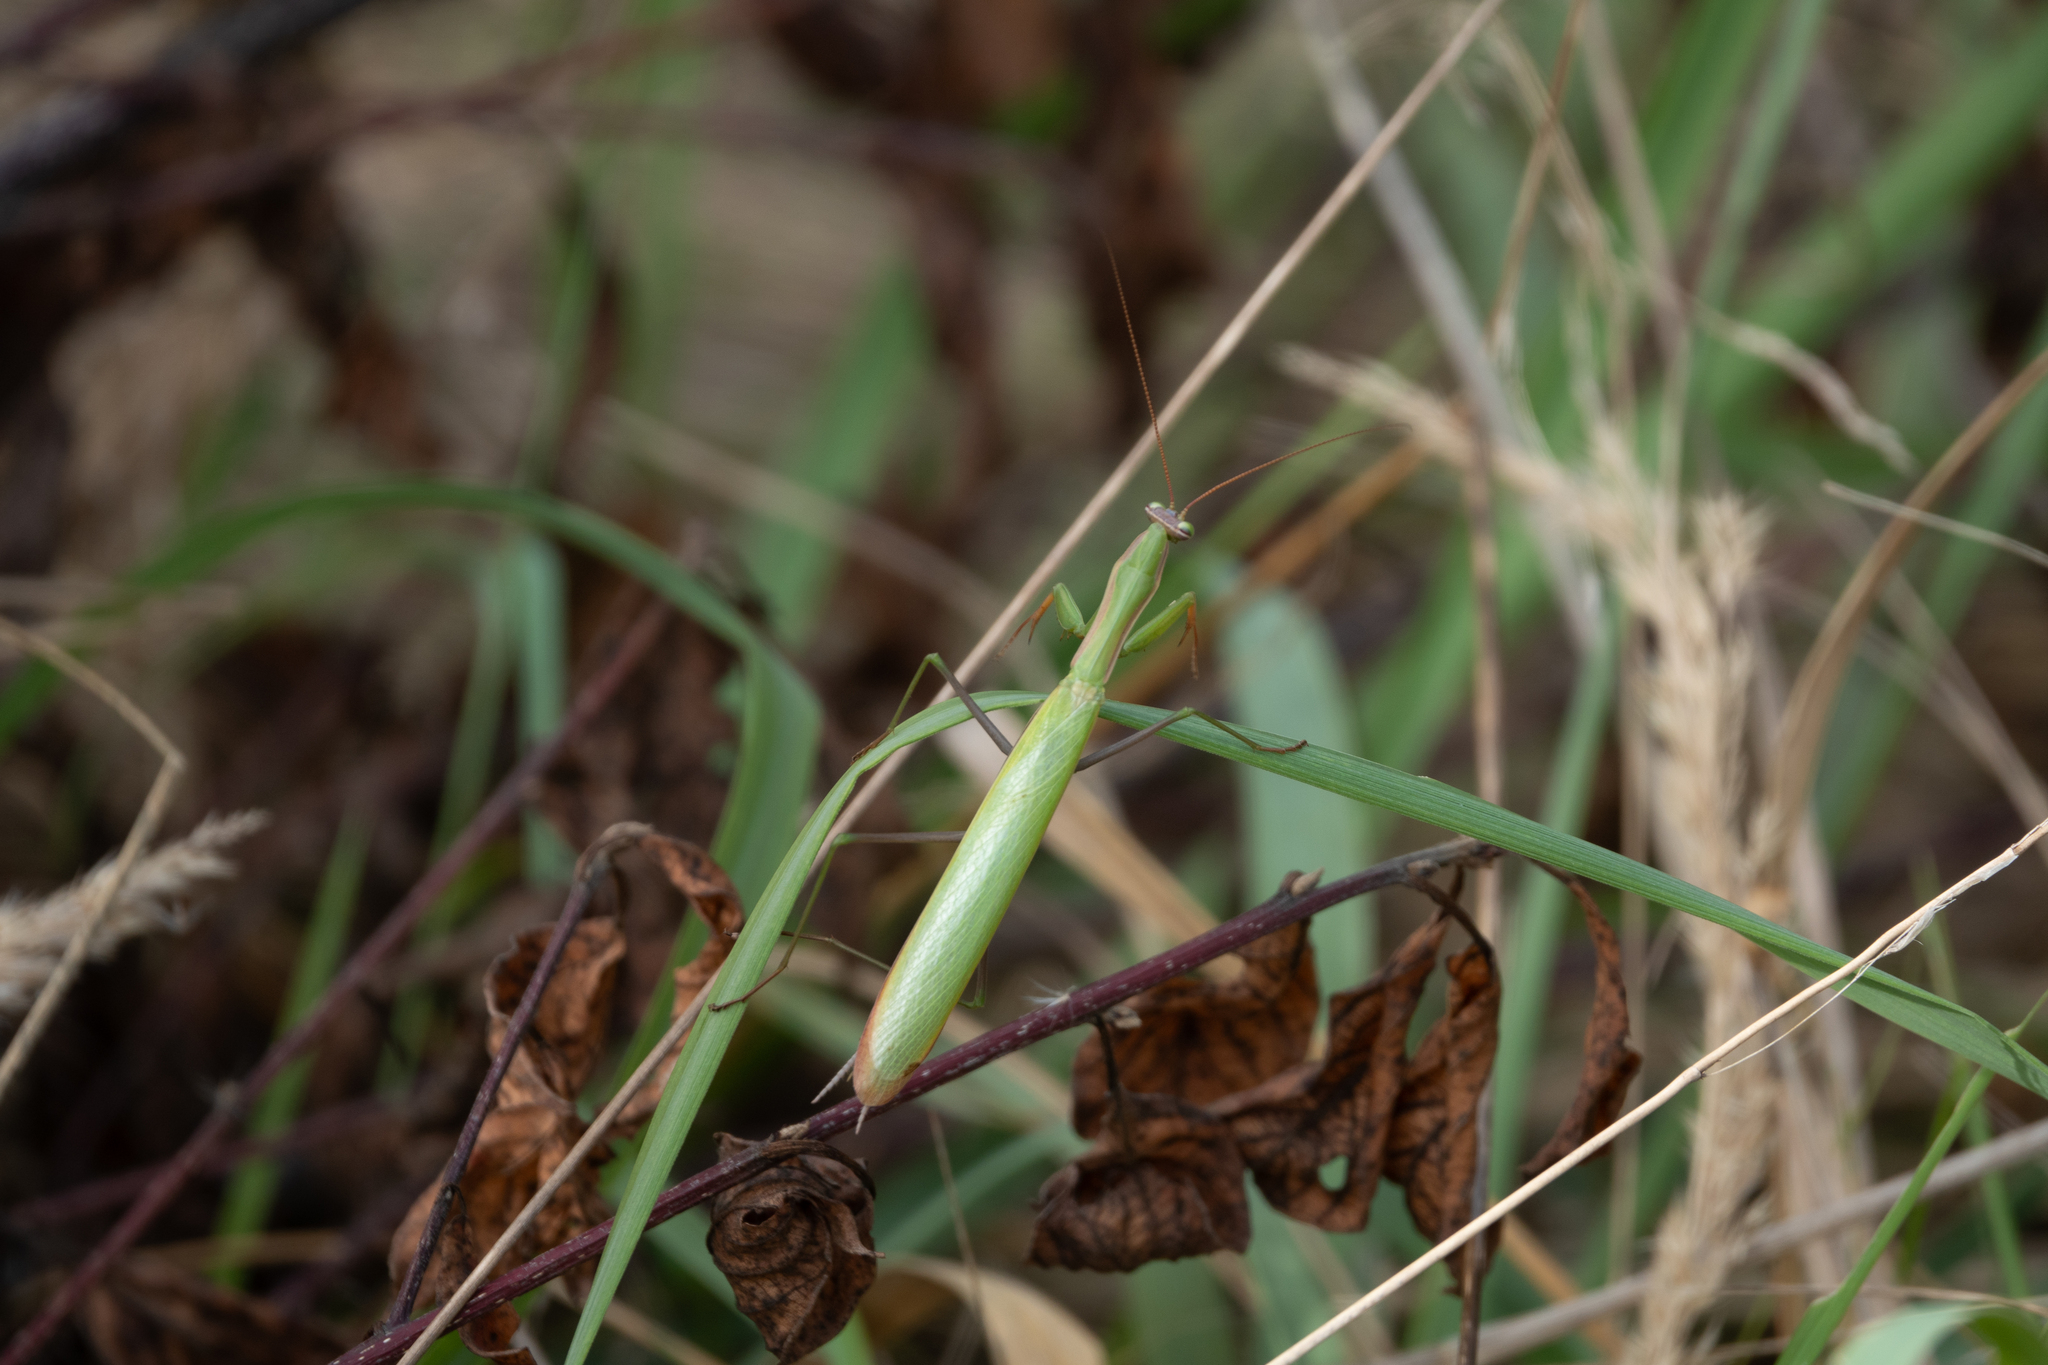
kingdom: Animalia
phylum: Arthropoda
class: Insecta
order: Mantodea
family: Mantidae
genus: Mantis
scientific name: Mantis religiosa
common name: Praying mantis
